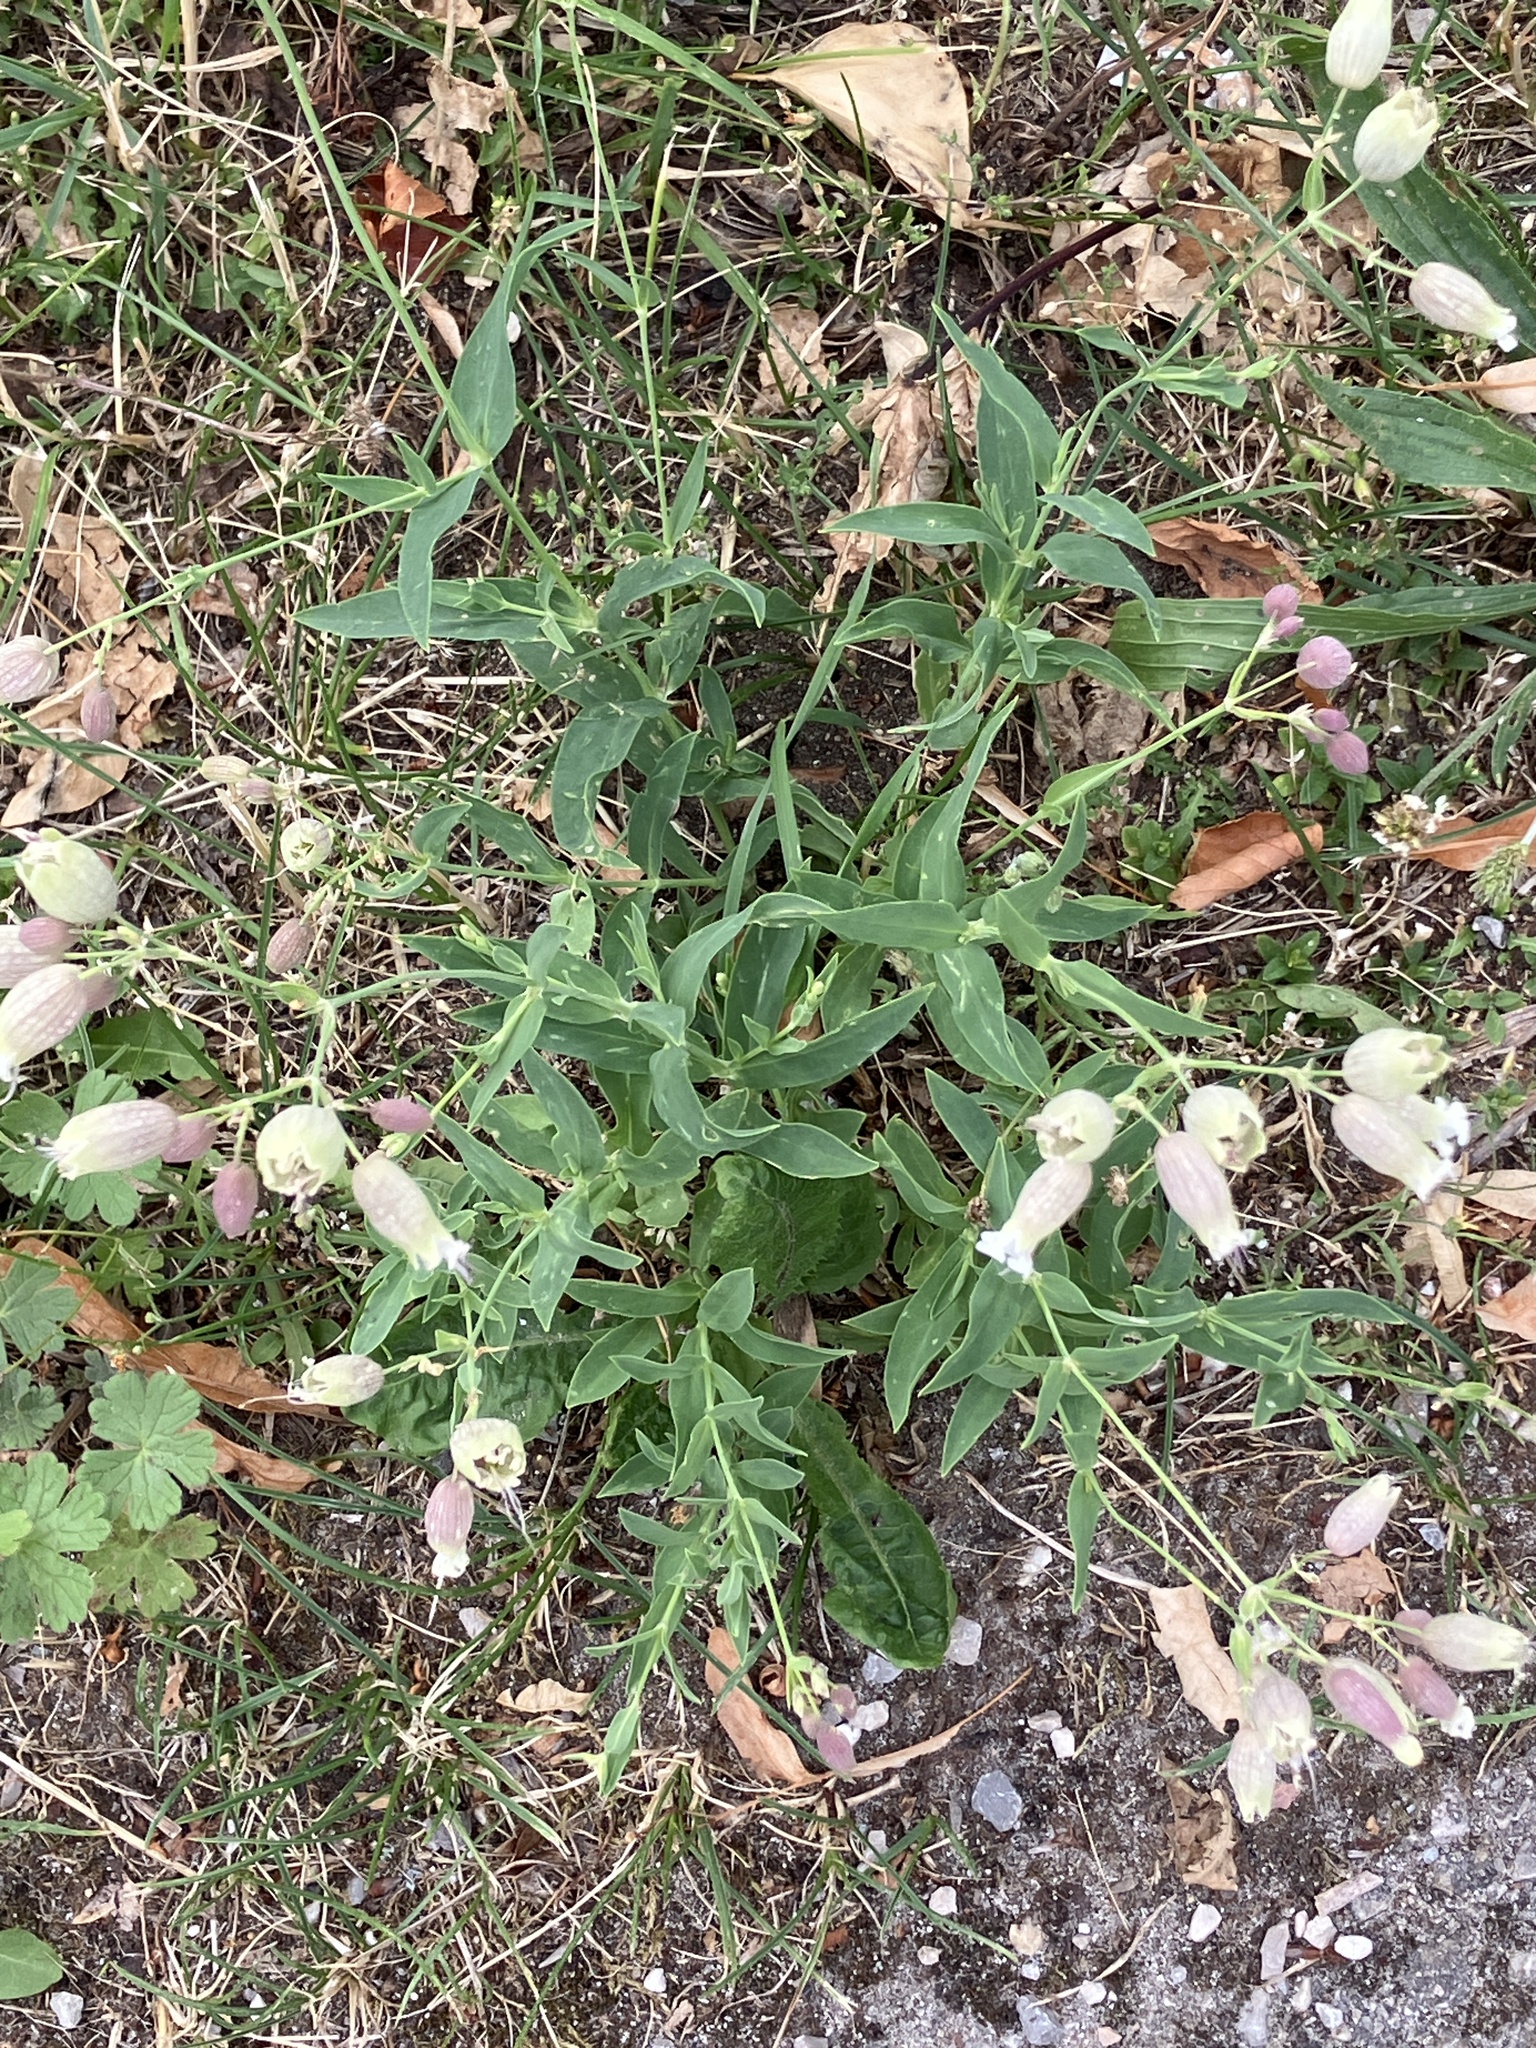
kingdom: Plantae
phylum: Tracheophyta
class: Magnoliopsida
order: Caryophyllales
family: Caryophyllaceae
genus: Silene
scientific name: Silene vulgaris
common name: Bladder campion
